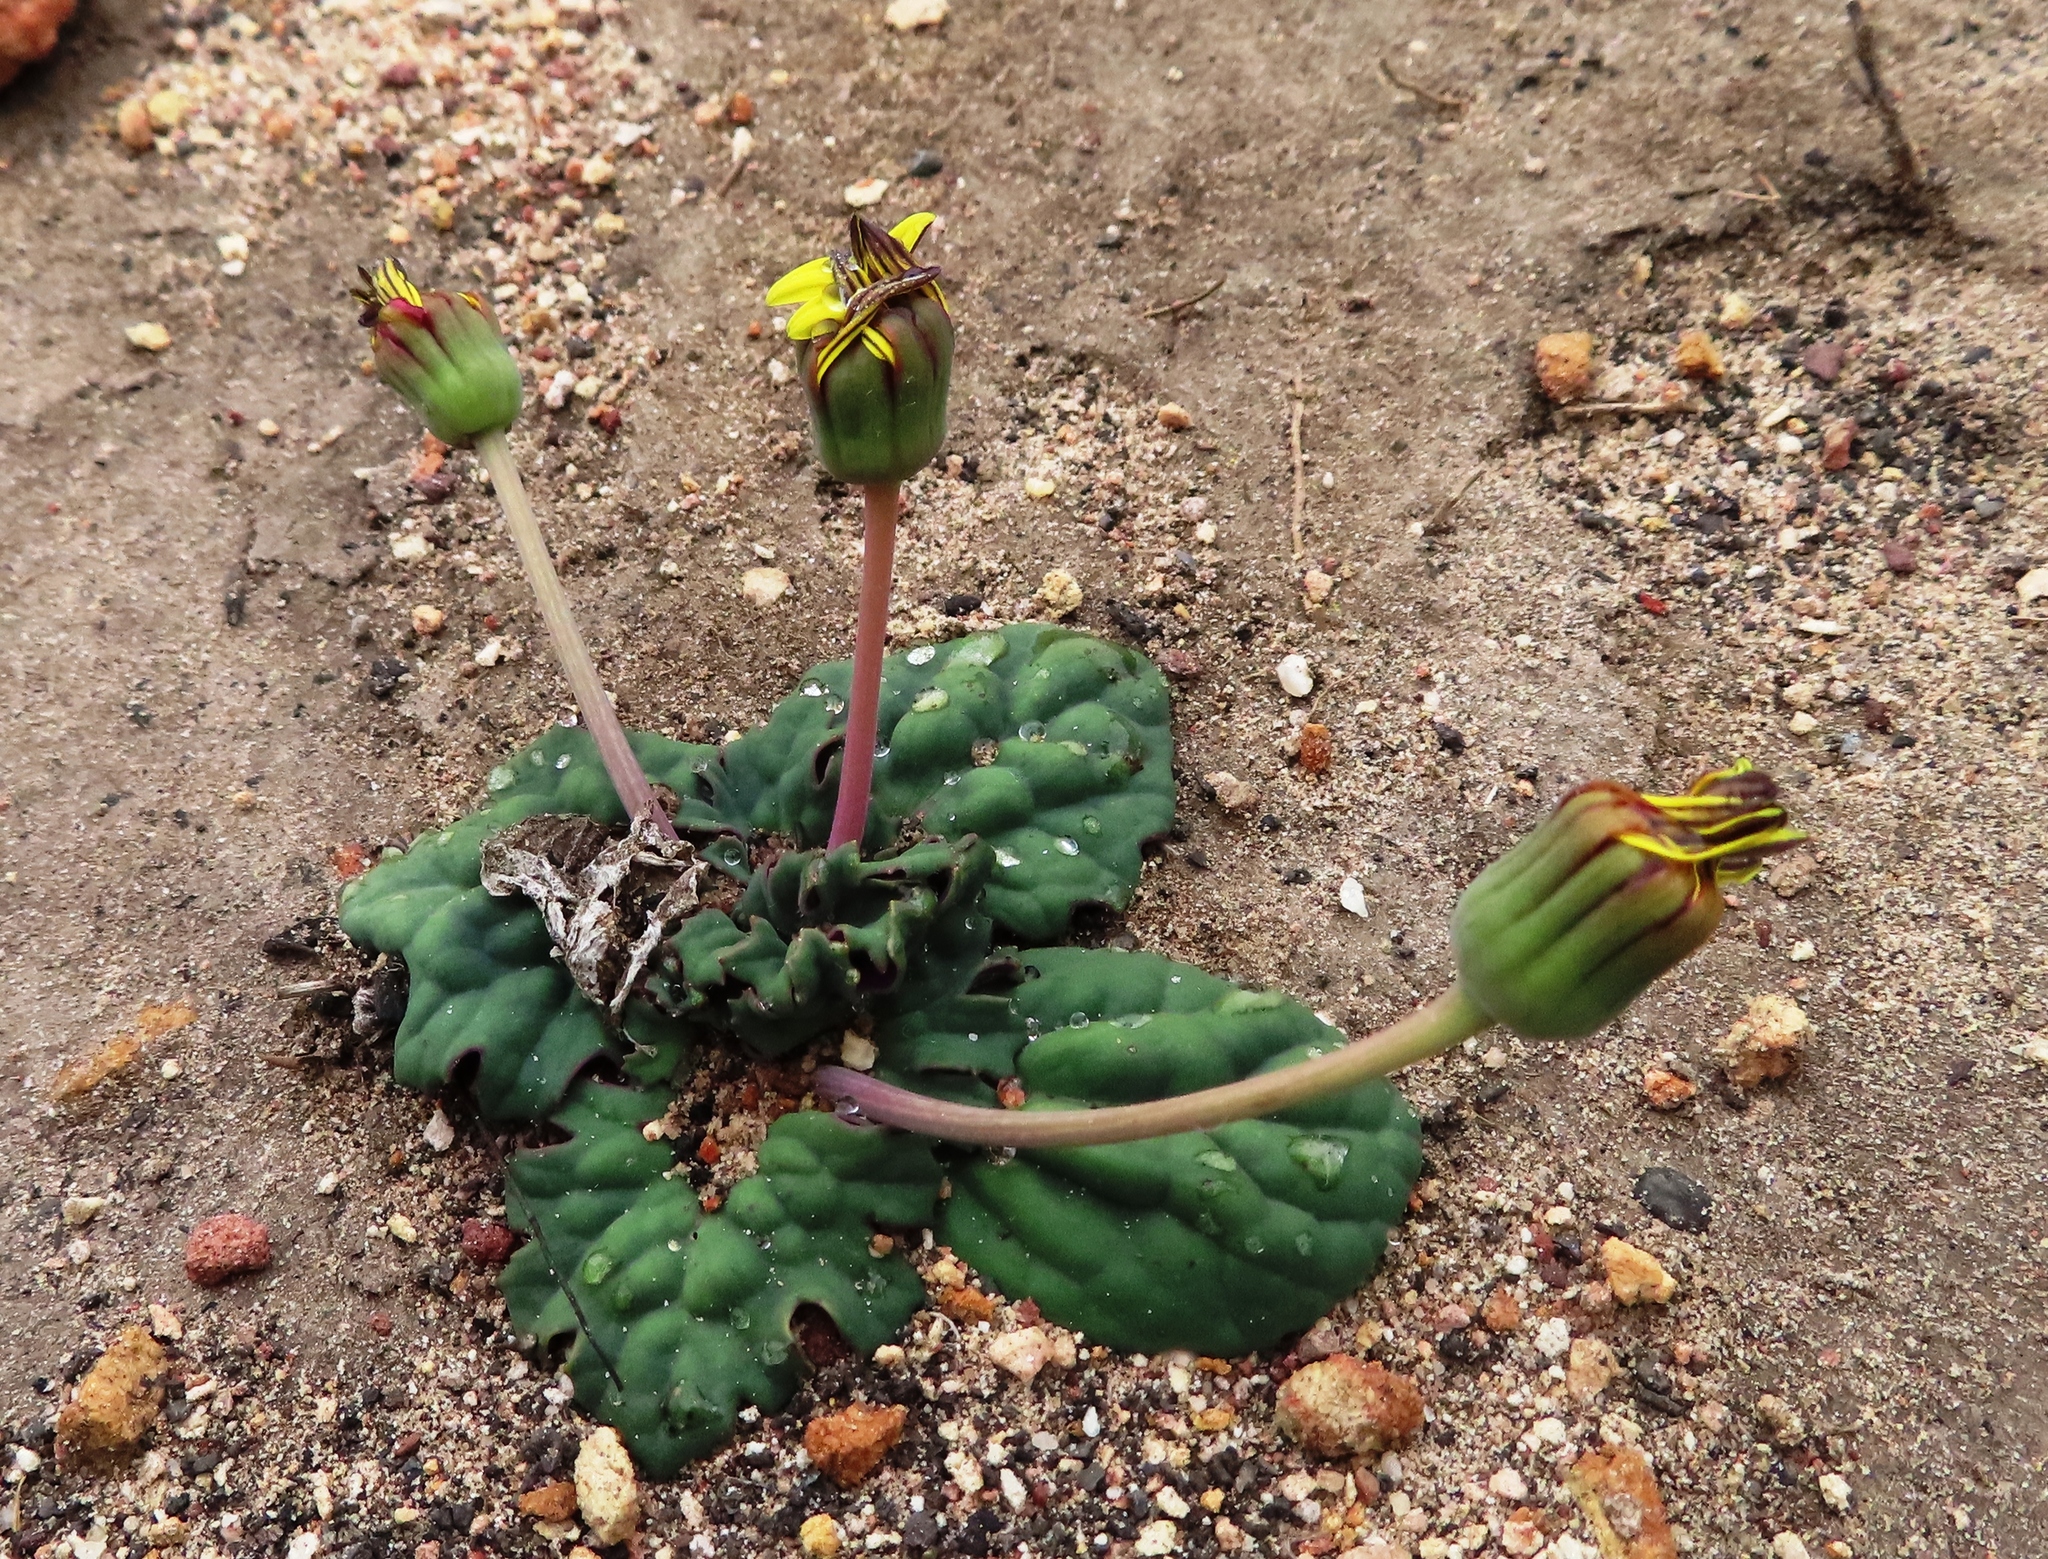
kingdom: Plantae
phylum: Tracheophyta
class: Magnoliopsida
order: Asterales
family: Asteraceae
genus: Othonna
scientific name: Othonna oleracea
